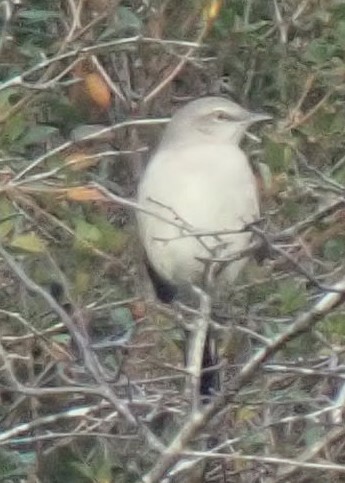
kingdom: Animalia
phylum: Chordata
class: Aves
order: Passeriformes
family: Mimidae
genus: Mimus
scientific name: Mimus polyglottos
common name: Northern mockingbird
